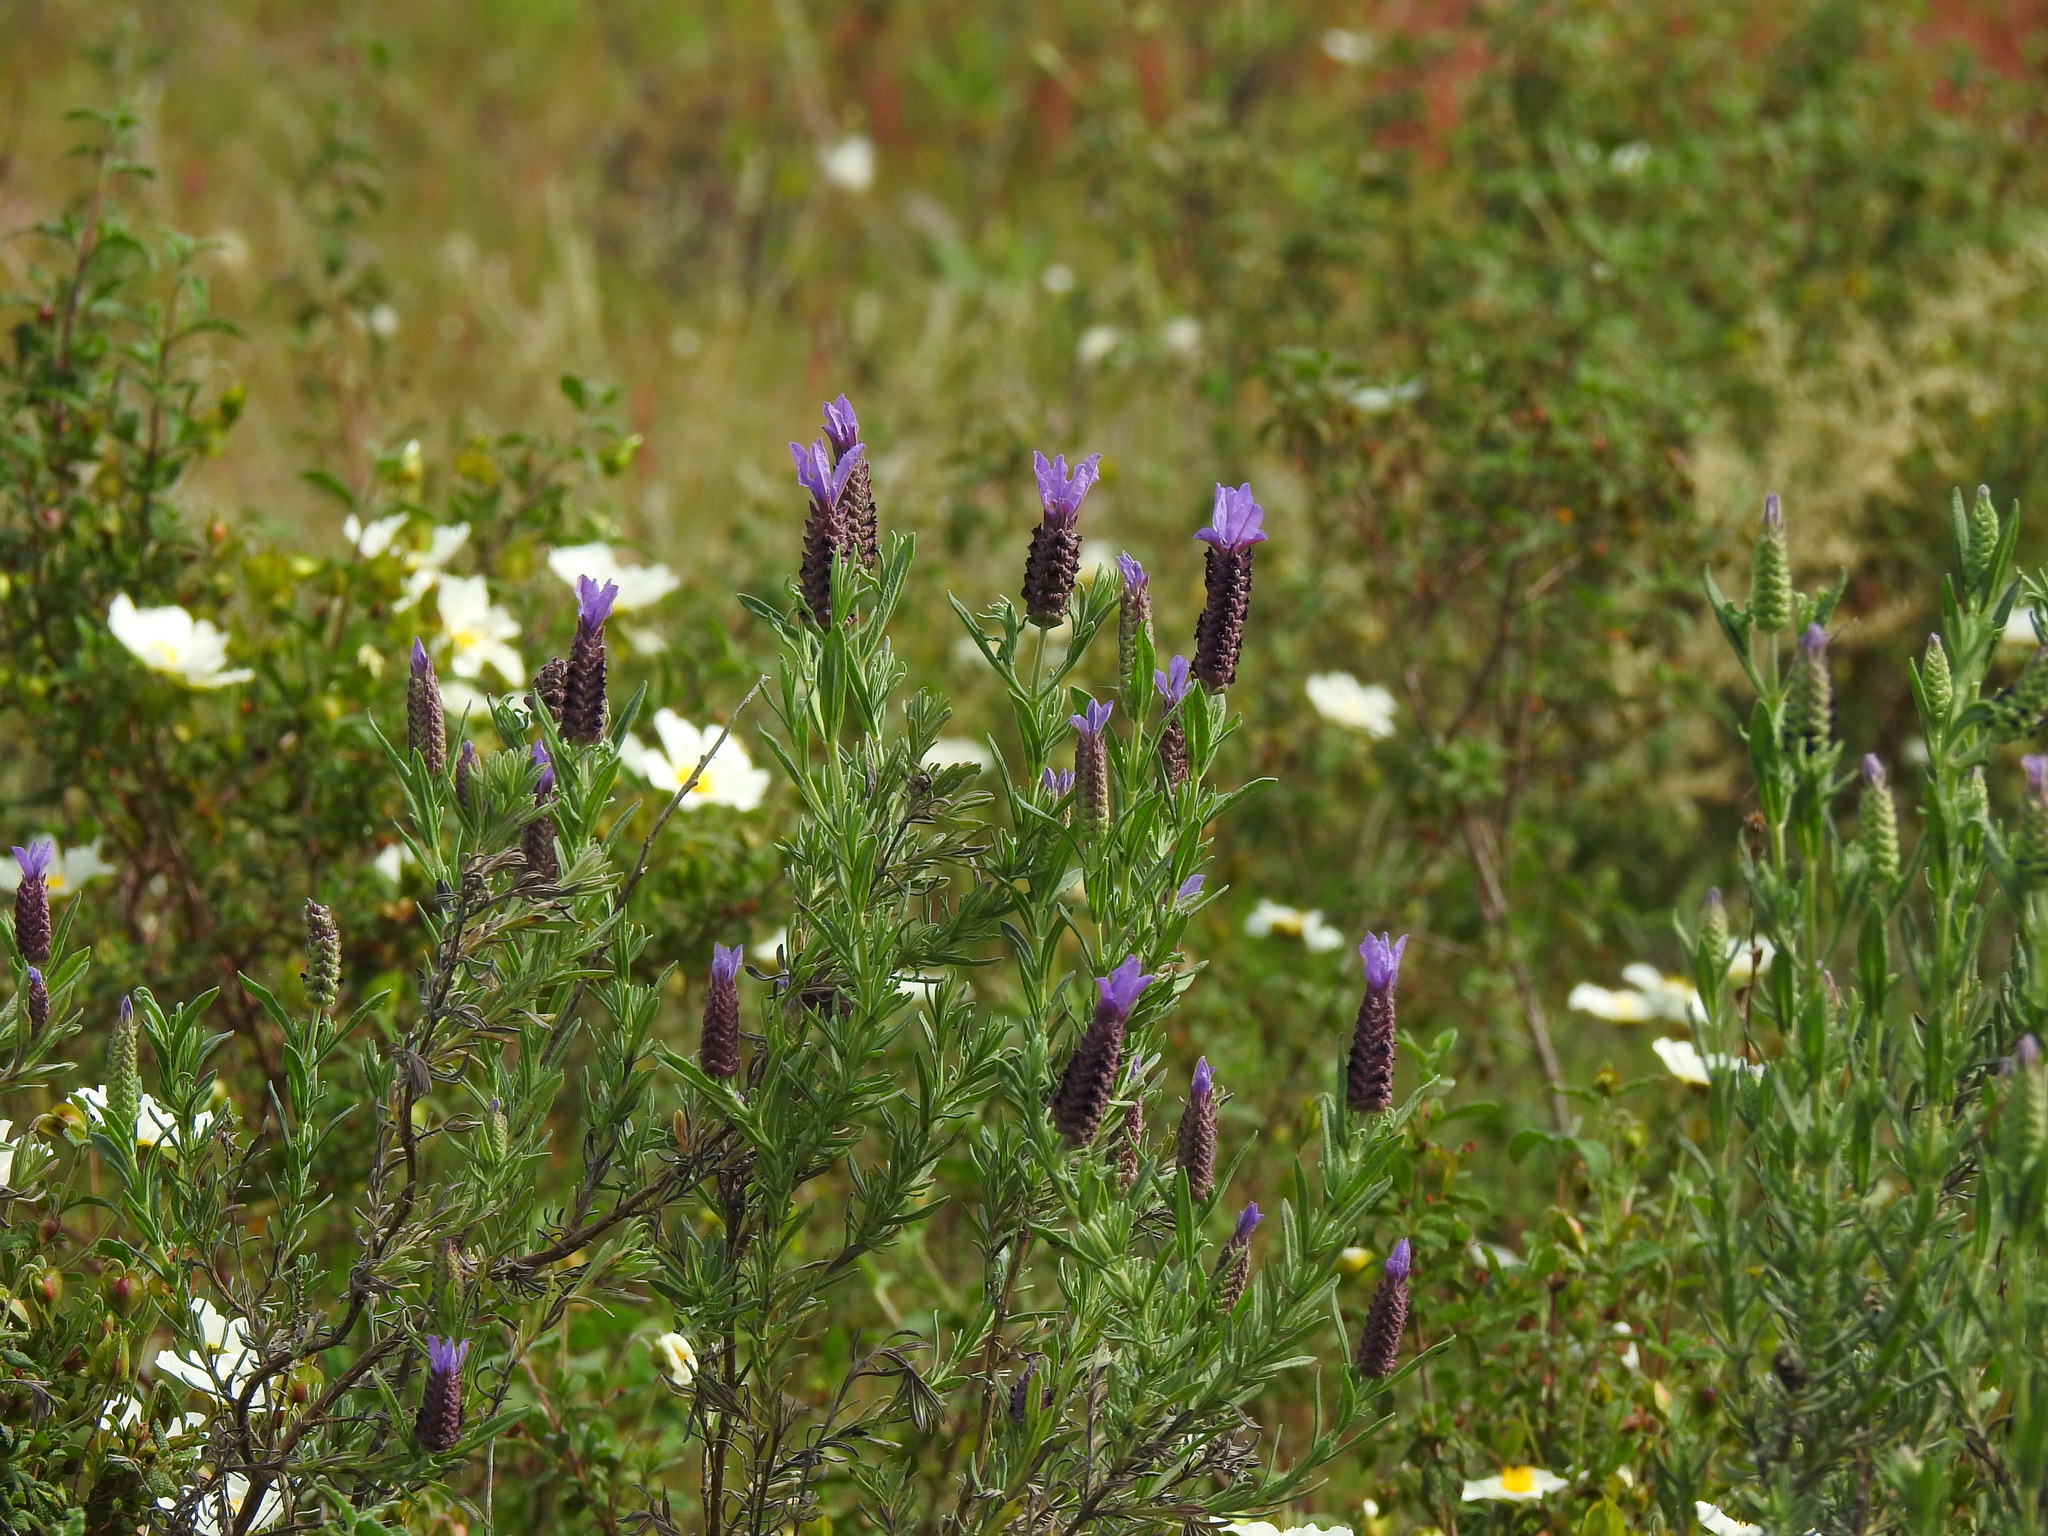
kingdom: Plantae
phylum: Tracheophyta
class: Magnoliopsida
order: Lamiales
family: Lamiaceae
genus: Lavandula
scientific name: Lavandula stoechas
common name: French lavender
